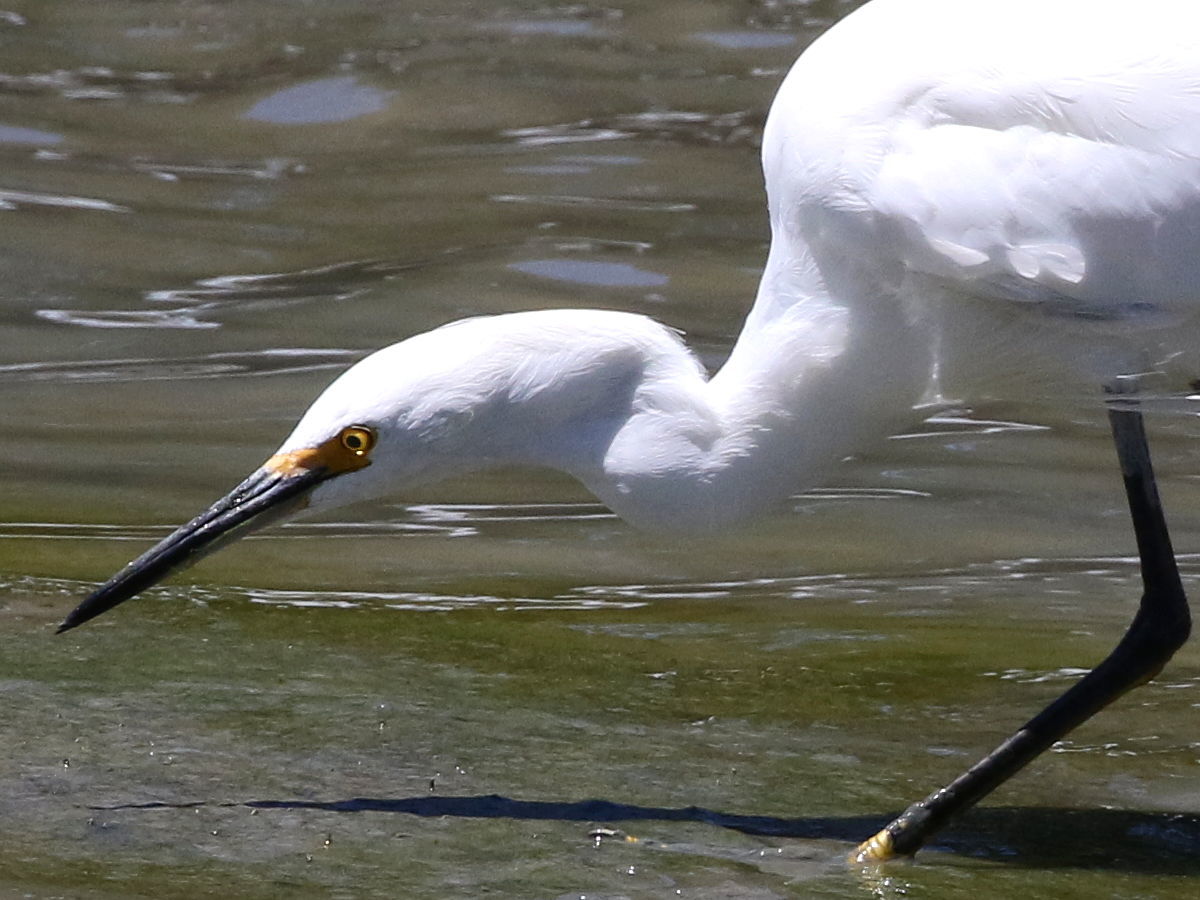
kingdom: Animalia
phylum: Chordata
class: Aves
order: Pelecaniformes
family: Ardeidae
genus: Egretta
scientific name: Egretta thula
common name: Snowy egret
